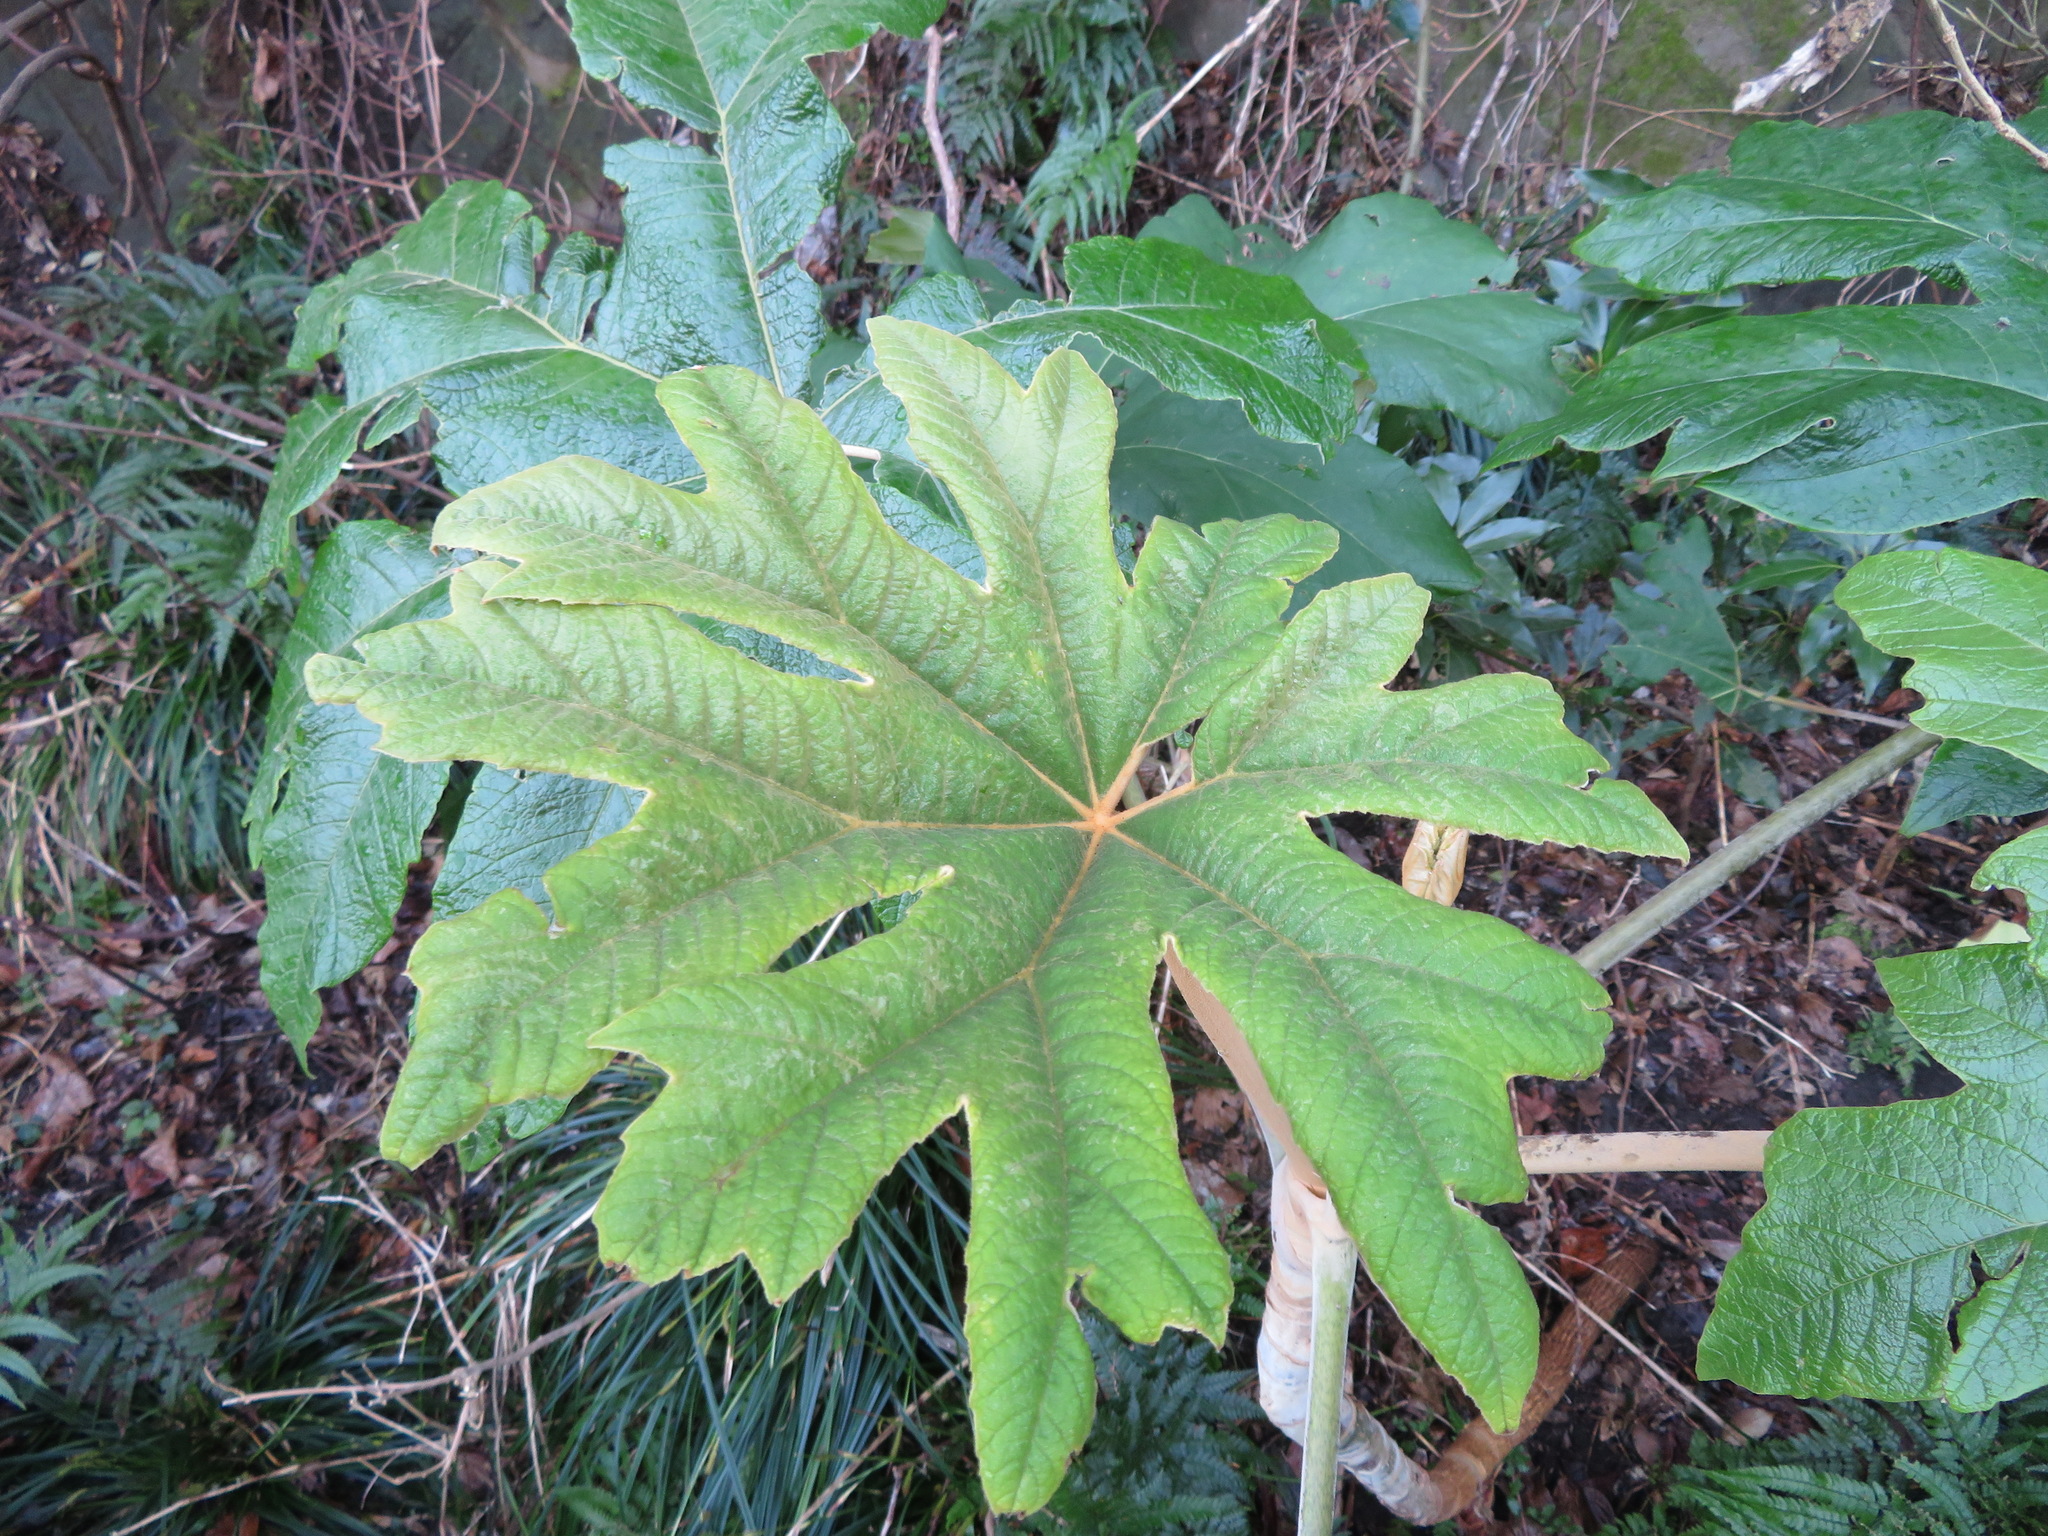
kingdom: Plantae
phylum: Tracheophyta
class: Magnoliopsida
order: Apiales
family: Araliaceae
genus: Tetrapanax
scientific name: Tetrapanax papyrifer
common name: Rice-paper plant
